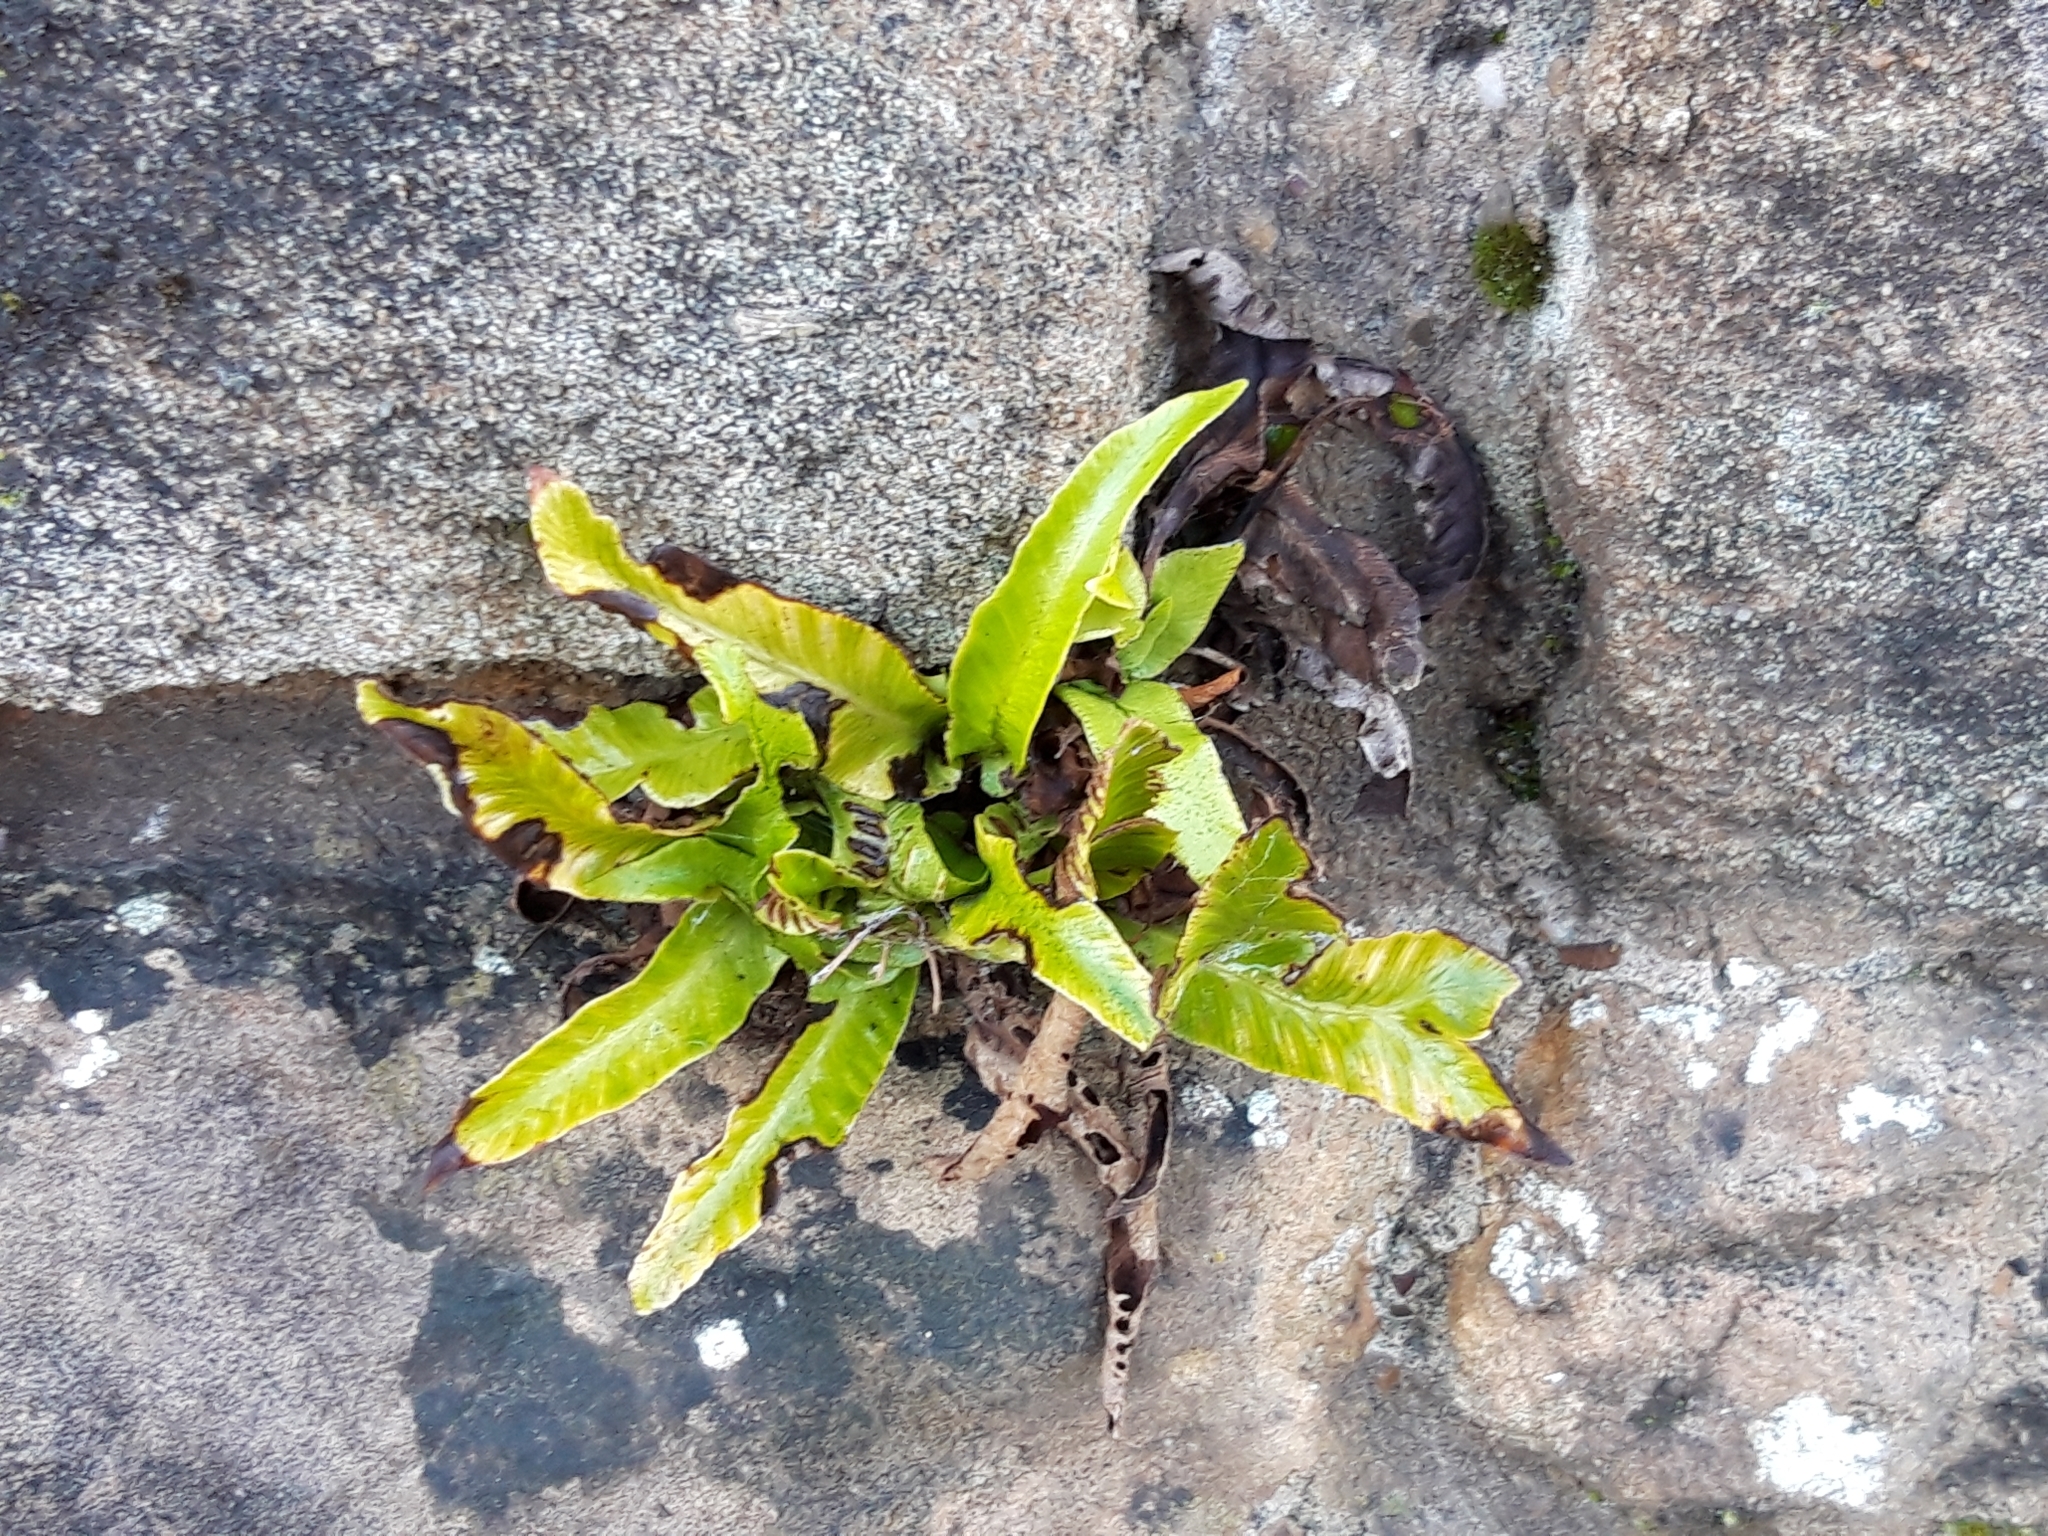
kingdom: Plantae
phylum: Tracheophyta
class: Polypodiopsida
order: Polypodiales
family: Aspleniaceae
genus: Asplenium
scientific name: Asplenium scolopendrium
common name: Hart's-tongue fern
